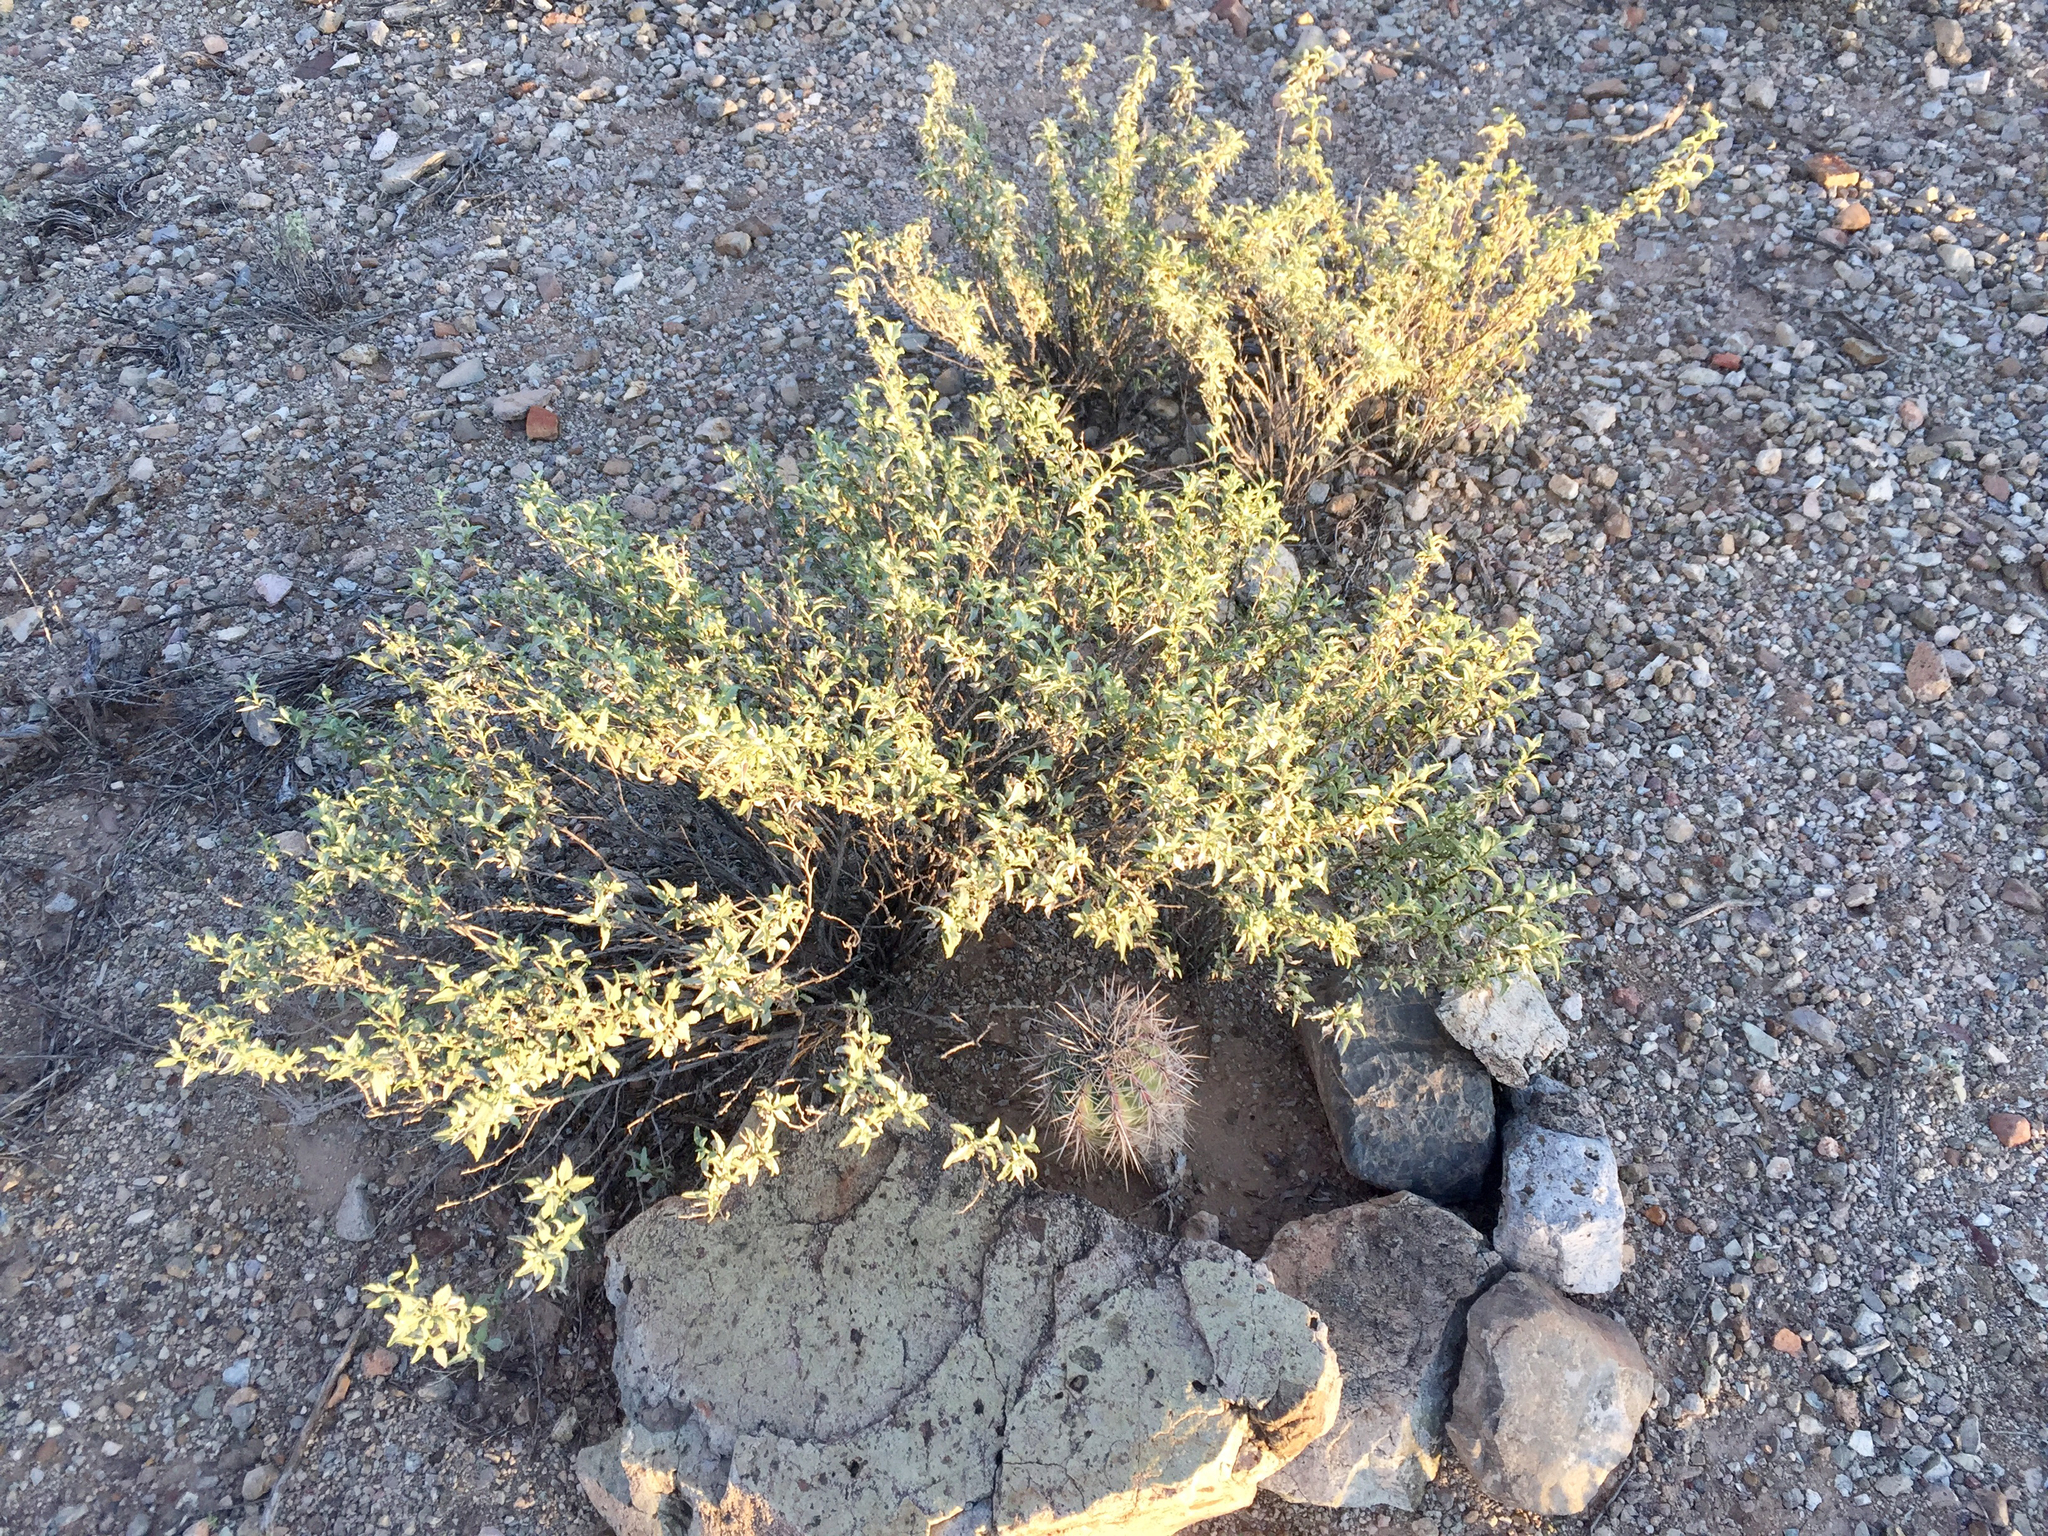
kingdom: Plantae
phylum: Tracheophyta
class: Magnoliopsida
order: Asterales
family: Asteraceae
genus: Ambrosia
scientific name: Ambrosia deltoidea
